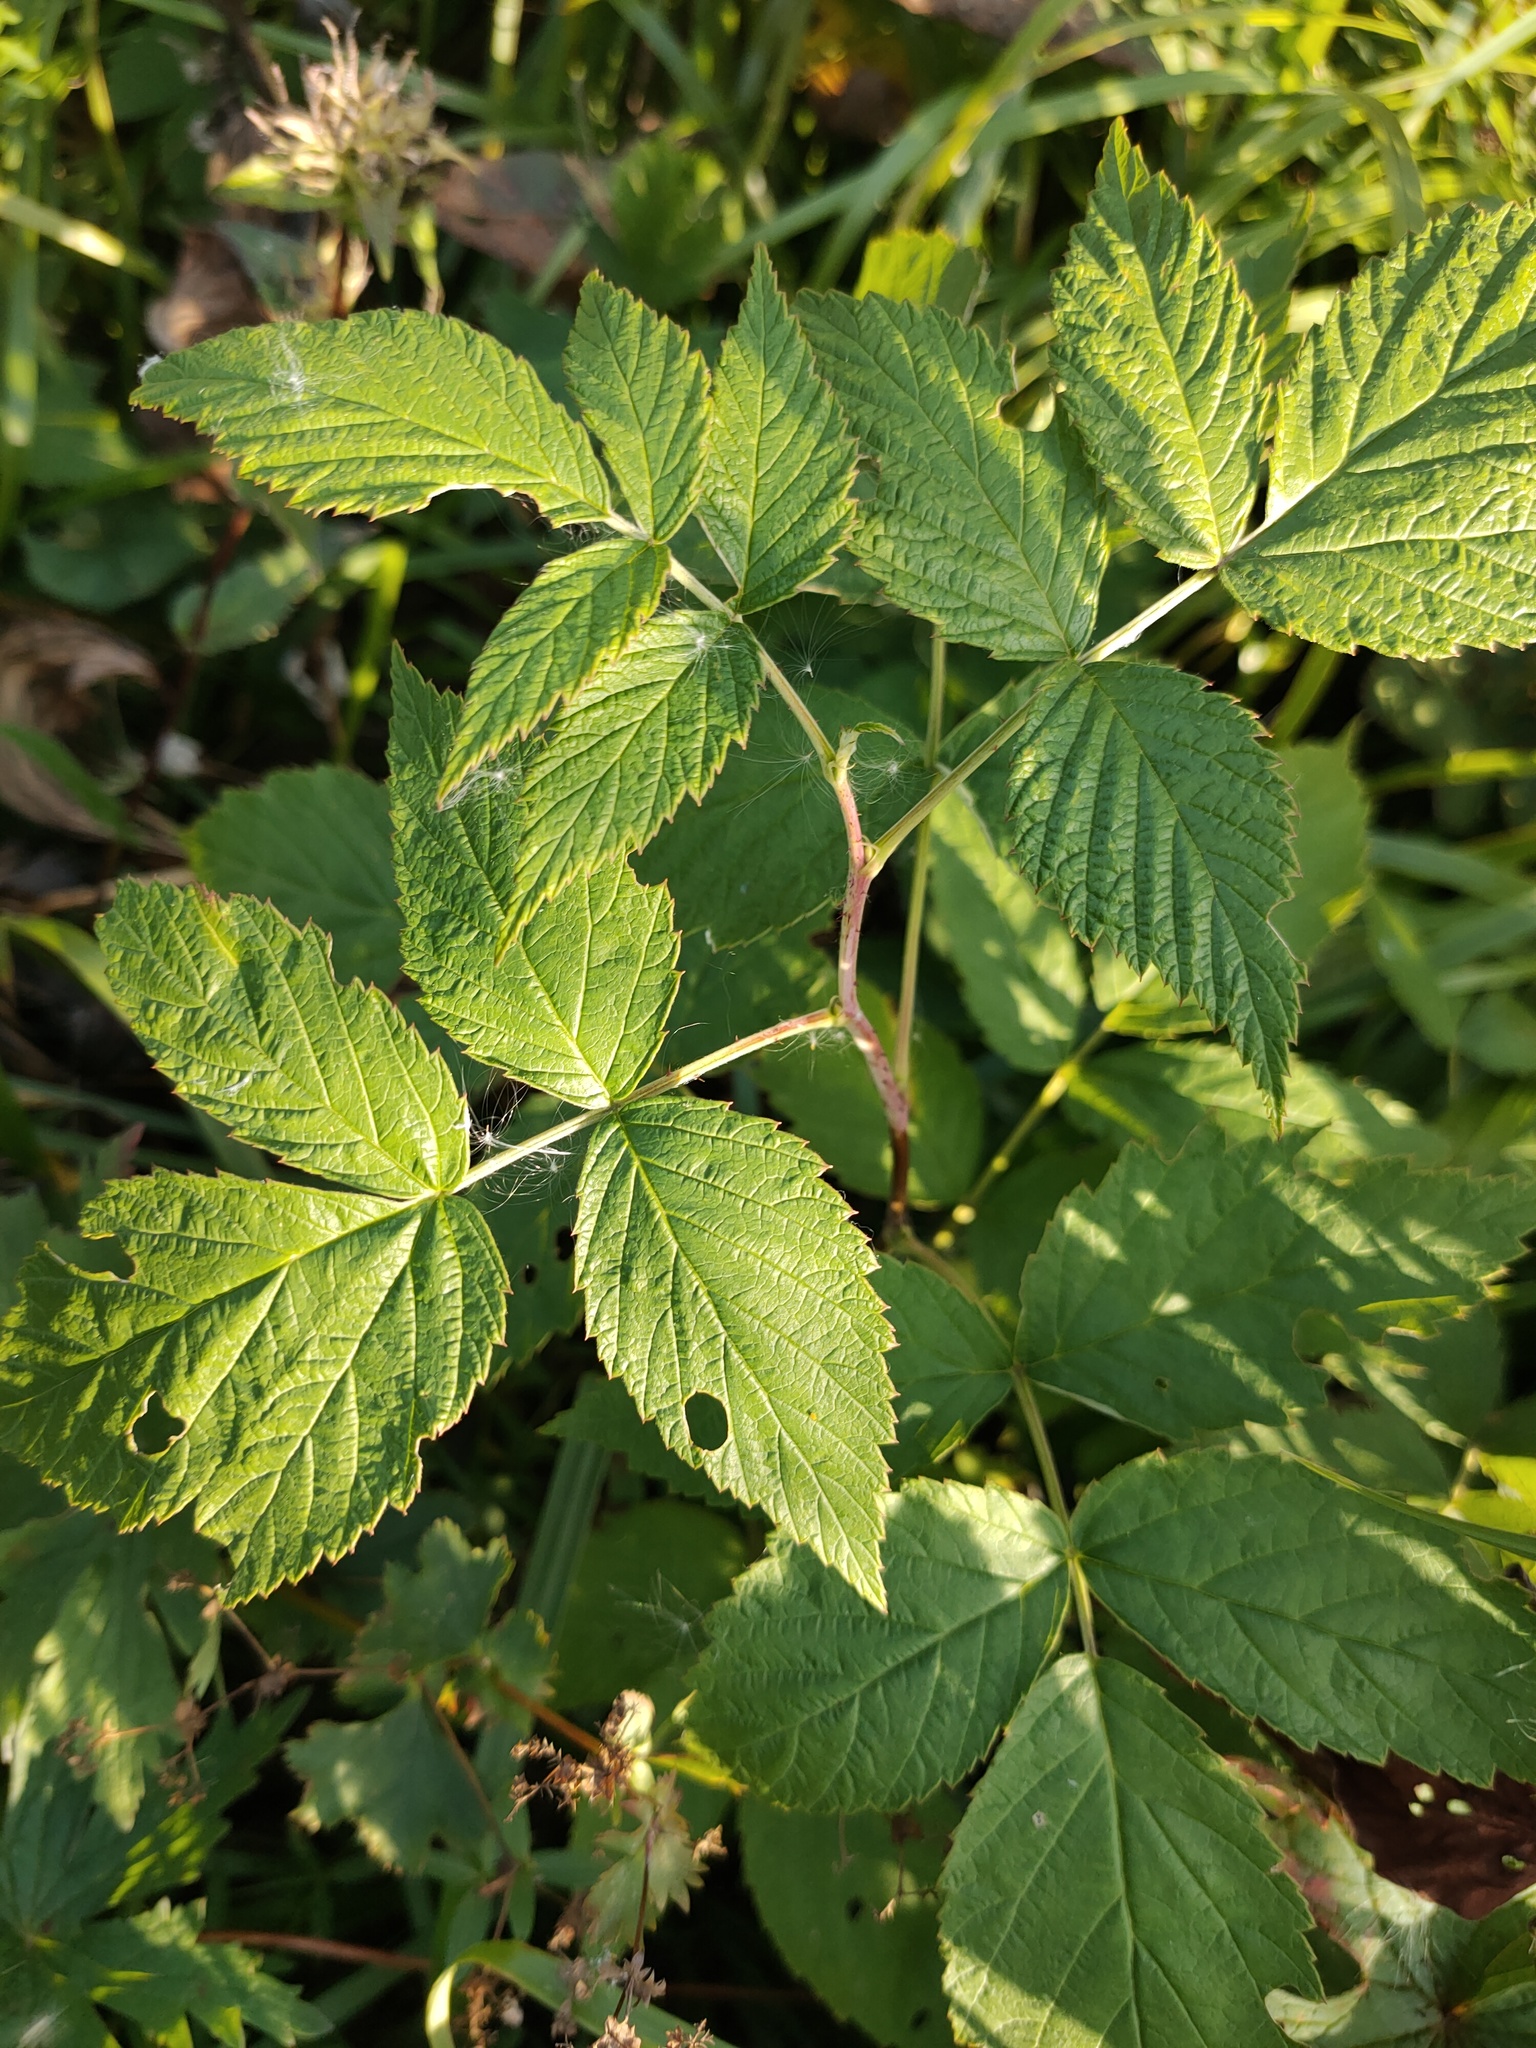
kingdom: Plantae
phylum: Tracheophyta
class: Magnoliopsida
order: Rosales
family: Rosaceae
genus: Rubus
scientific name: Rubus idaeus
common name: Raspberry
